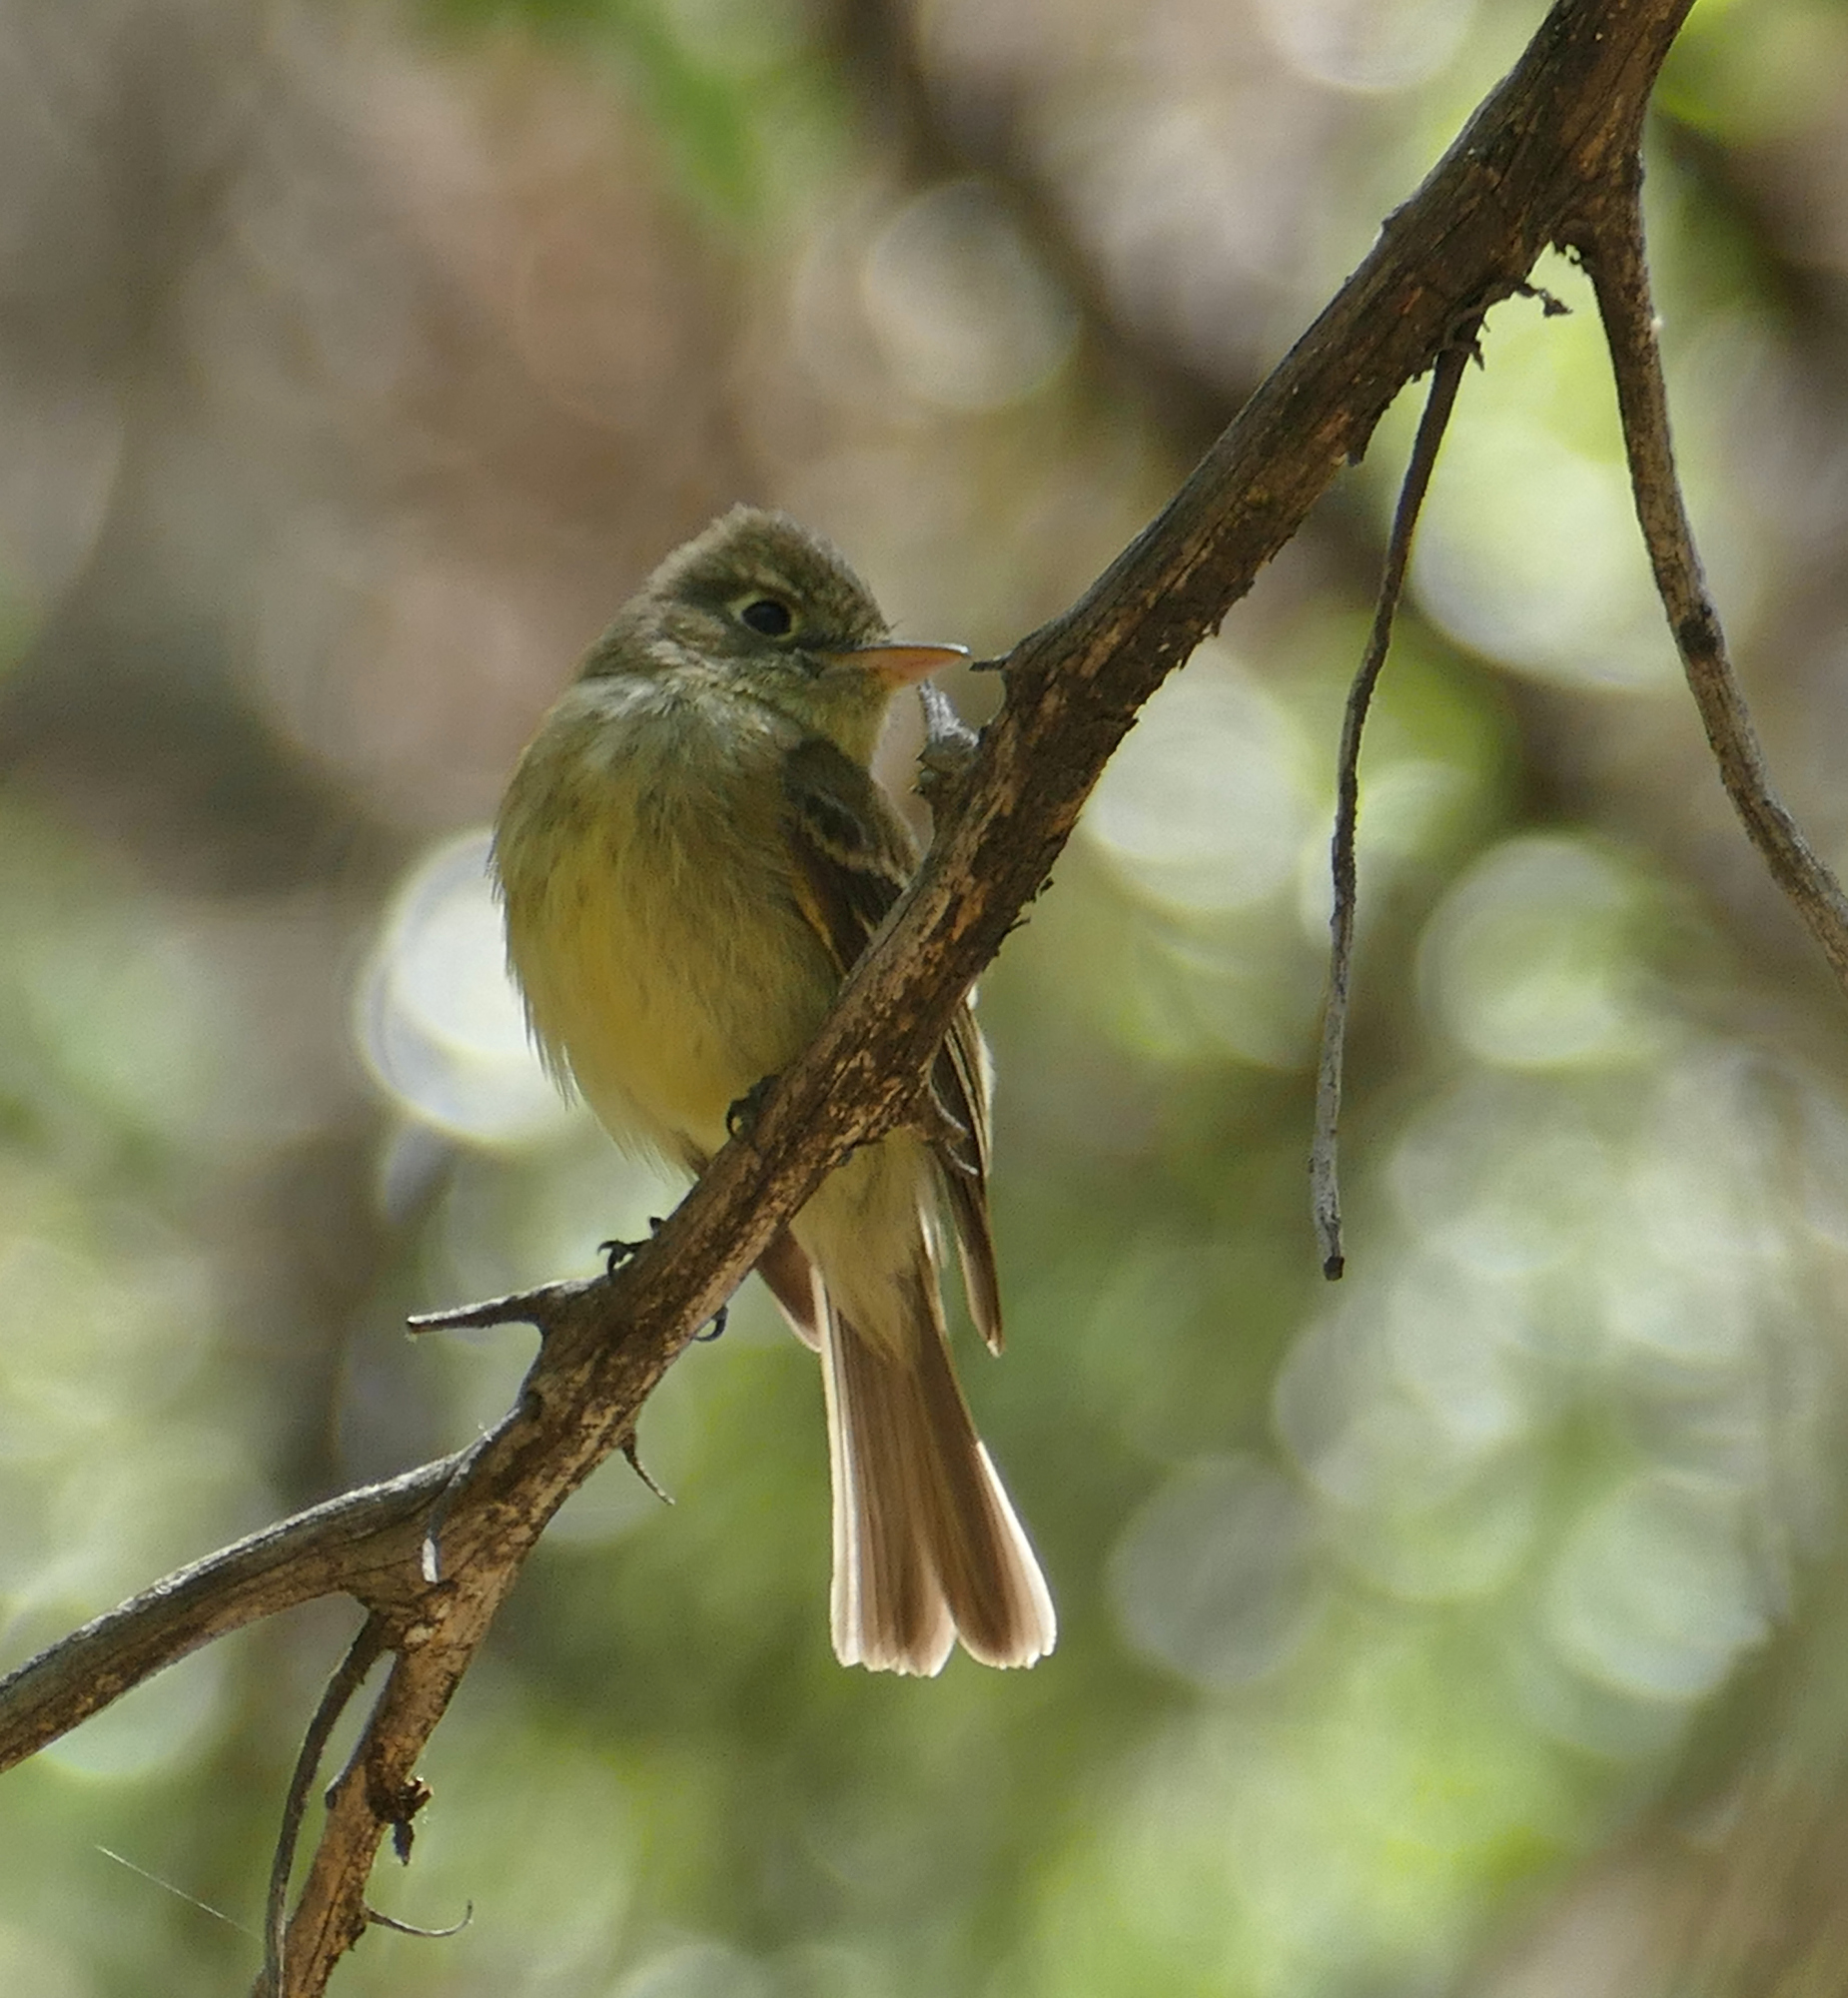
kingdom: Animalia
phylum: Chordata
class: Aves
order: Passeriformes
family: Tyrannidae
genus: Empidonax
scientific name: Empidonax difficilis
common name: Pacific-slope flycatcher
